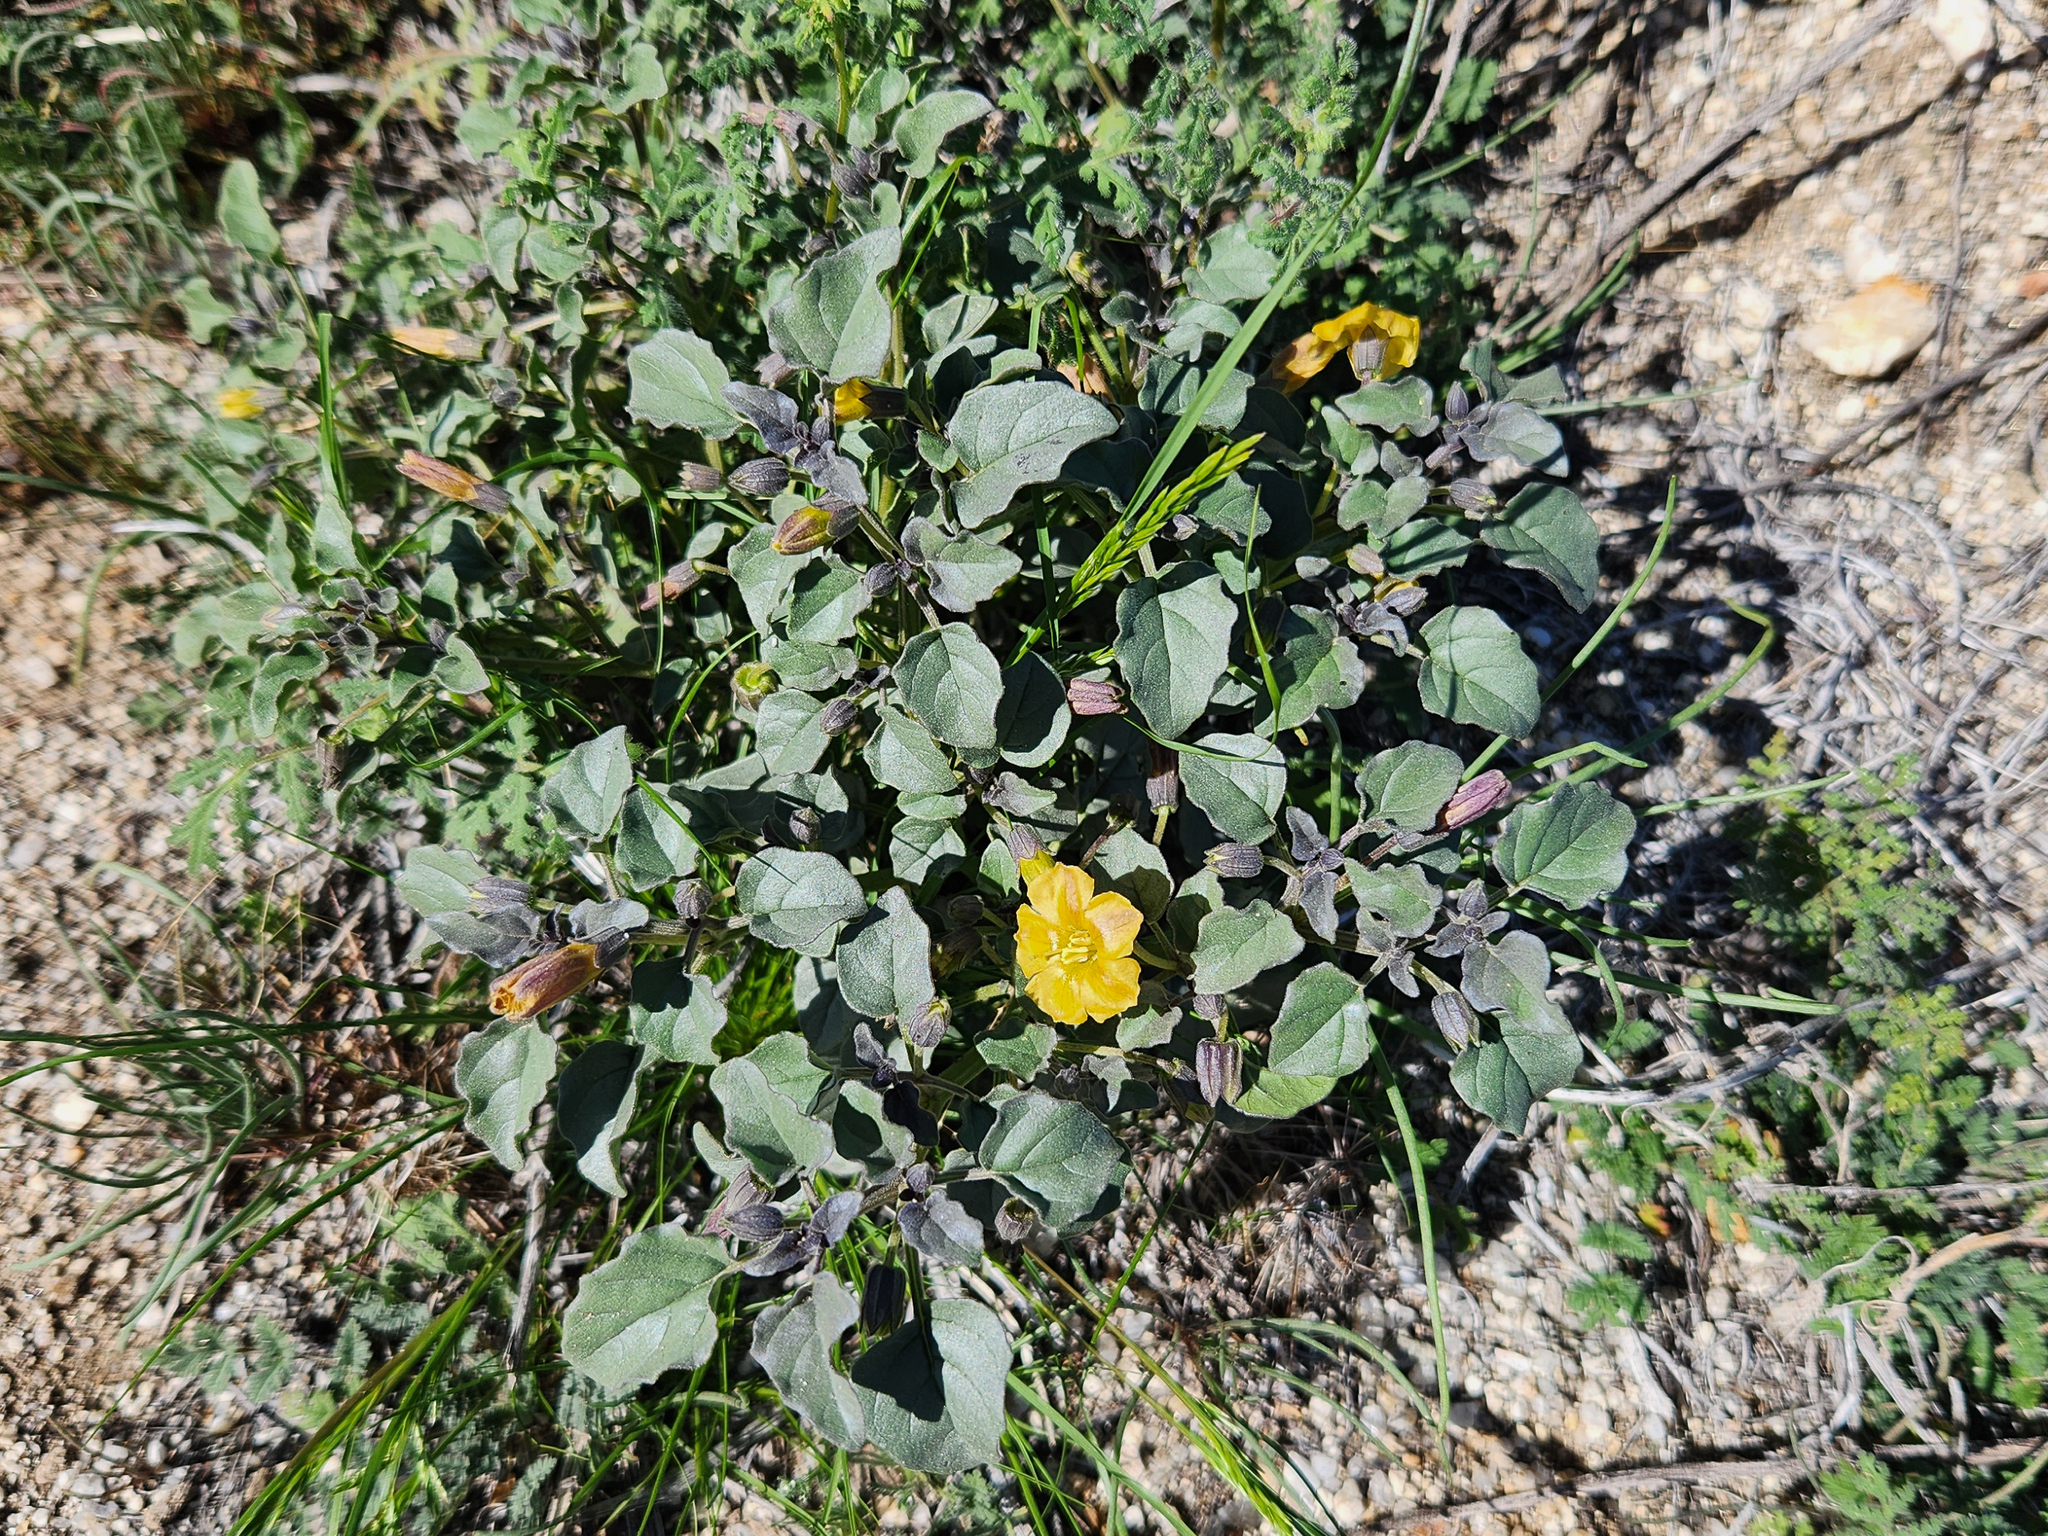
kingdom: Plantae
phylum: Tracheophyta
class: Magnoliopsida
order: Solanales
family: Solanaceae
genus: Physalis
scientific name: Physalis crassifolia
